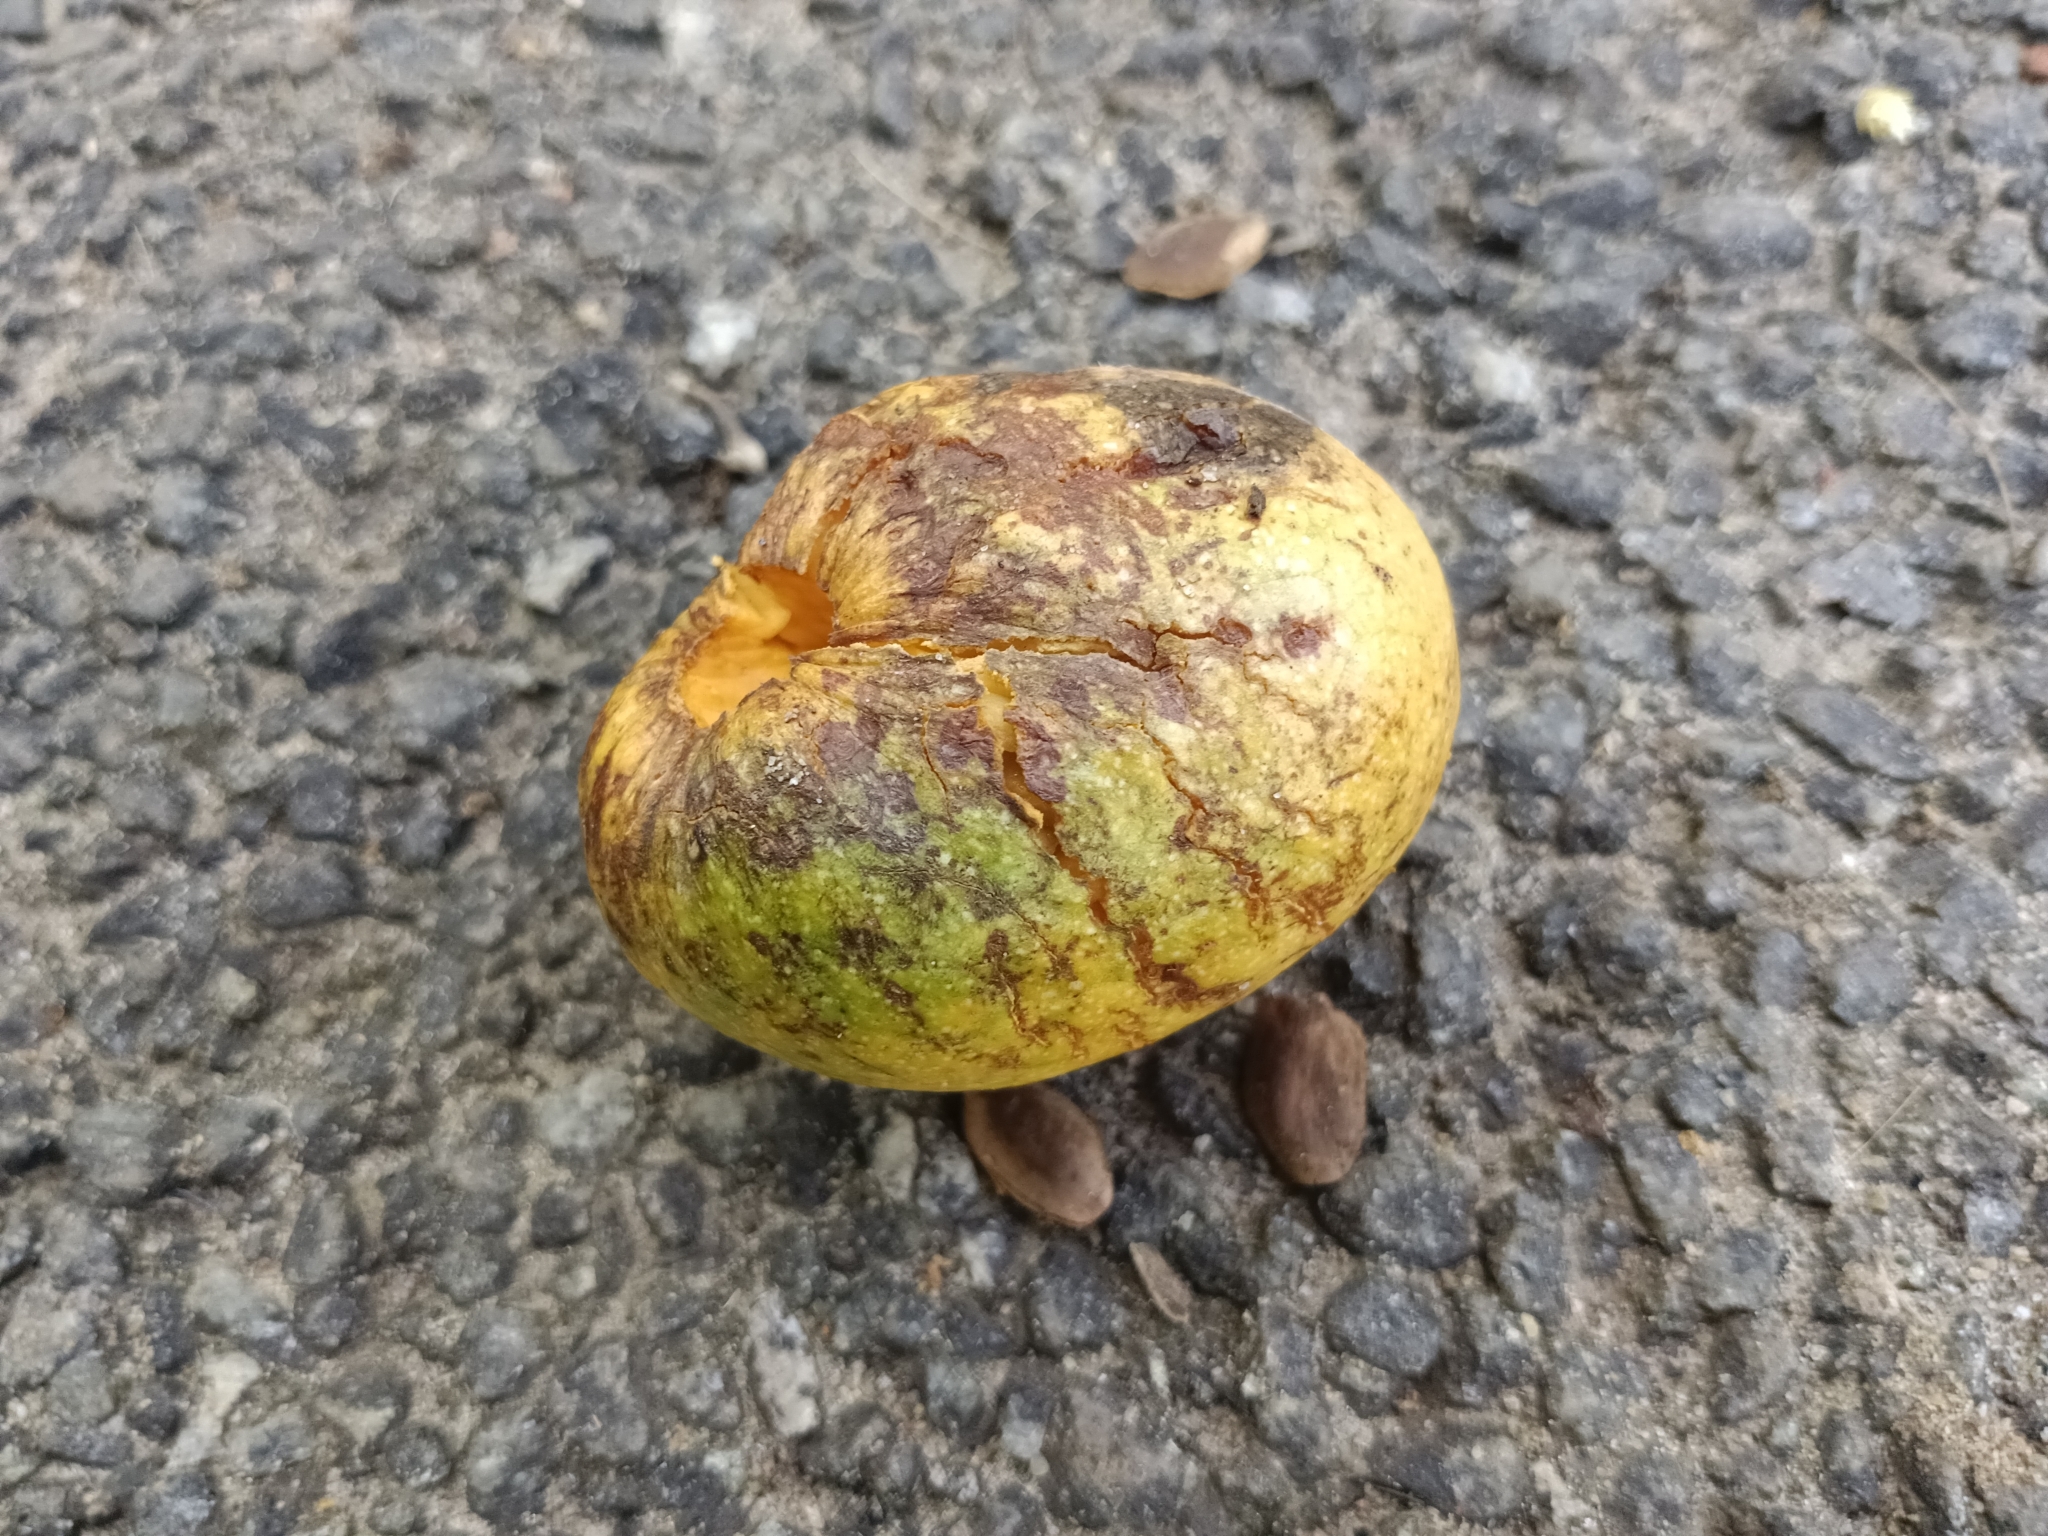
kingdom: Plantae
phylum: Tracheophyta
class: Magnoliopsida
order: Magnoliales
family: Annonaceae
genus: Annona
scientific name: Annona glabra
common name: Monkey apple
